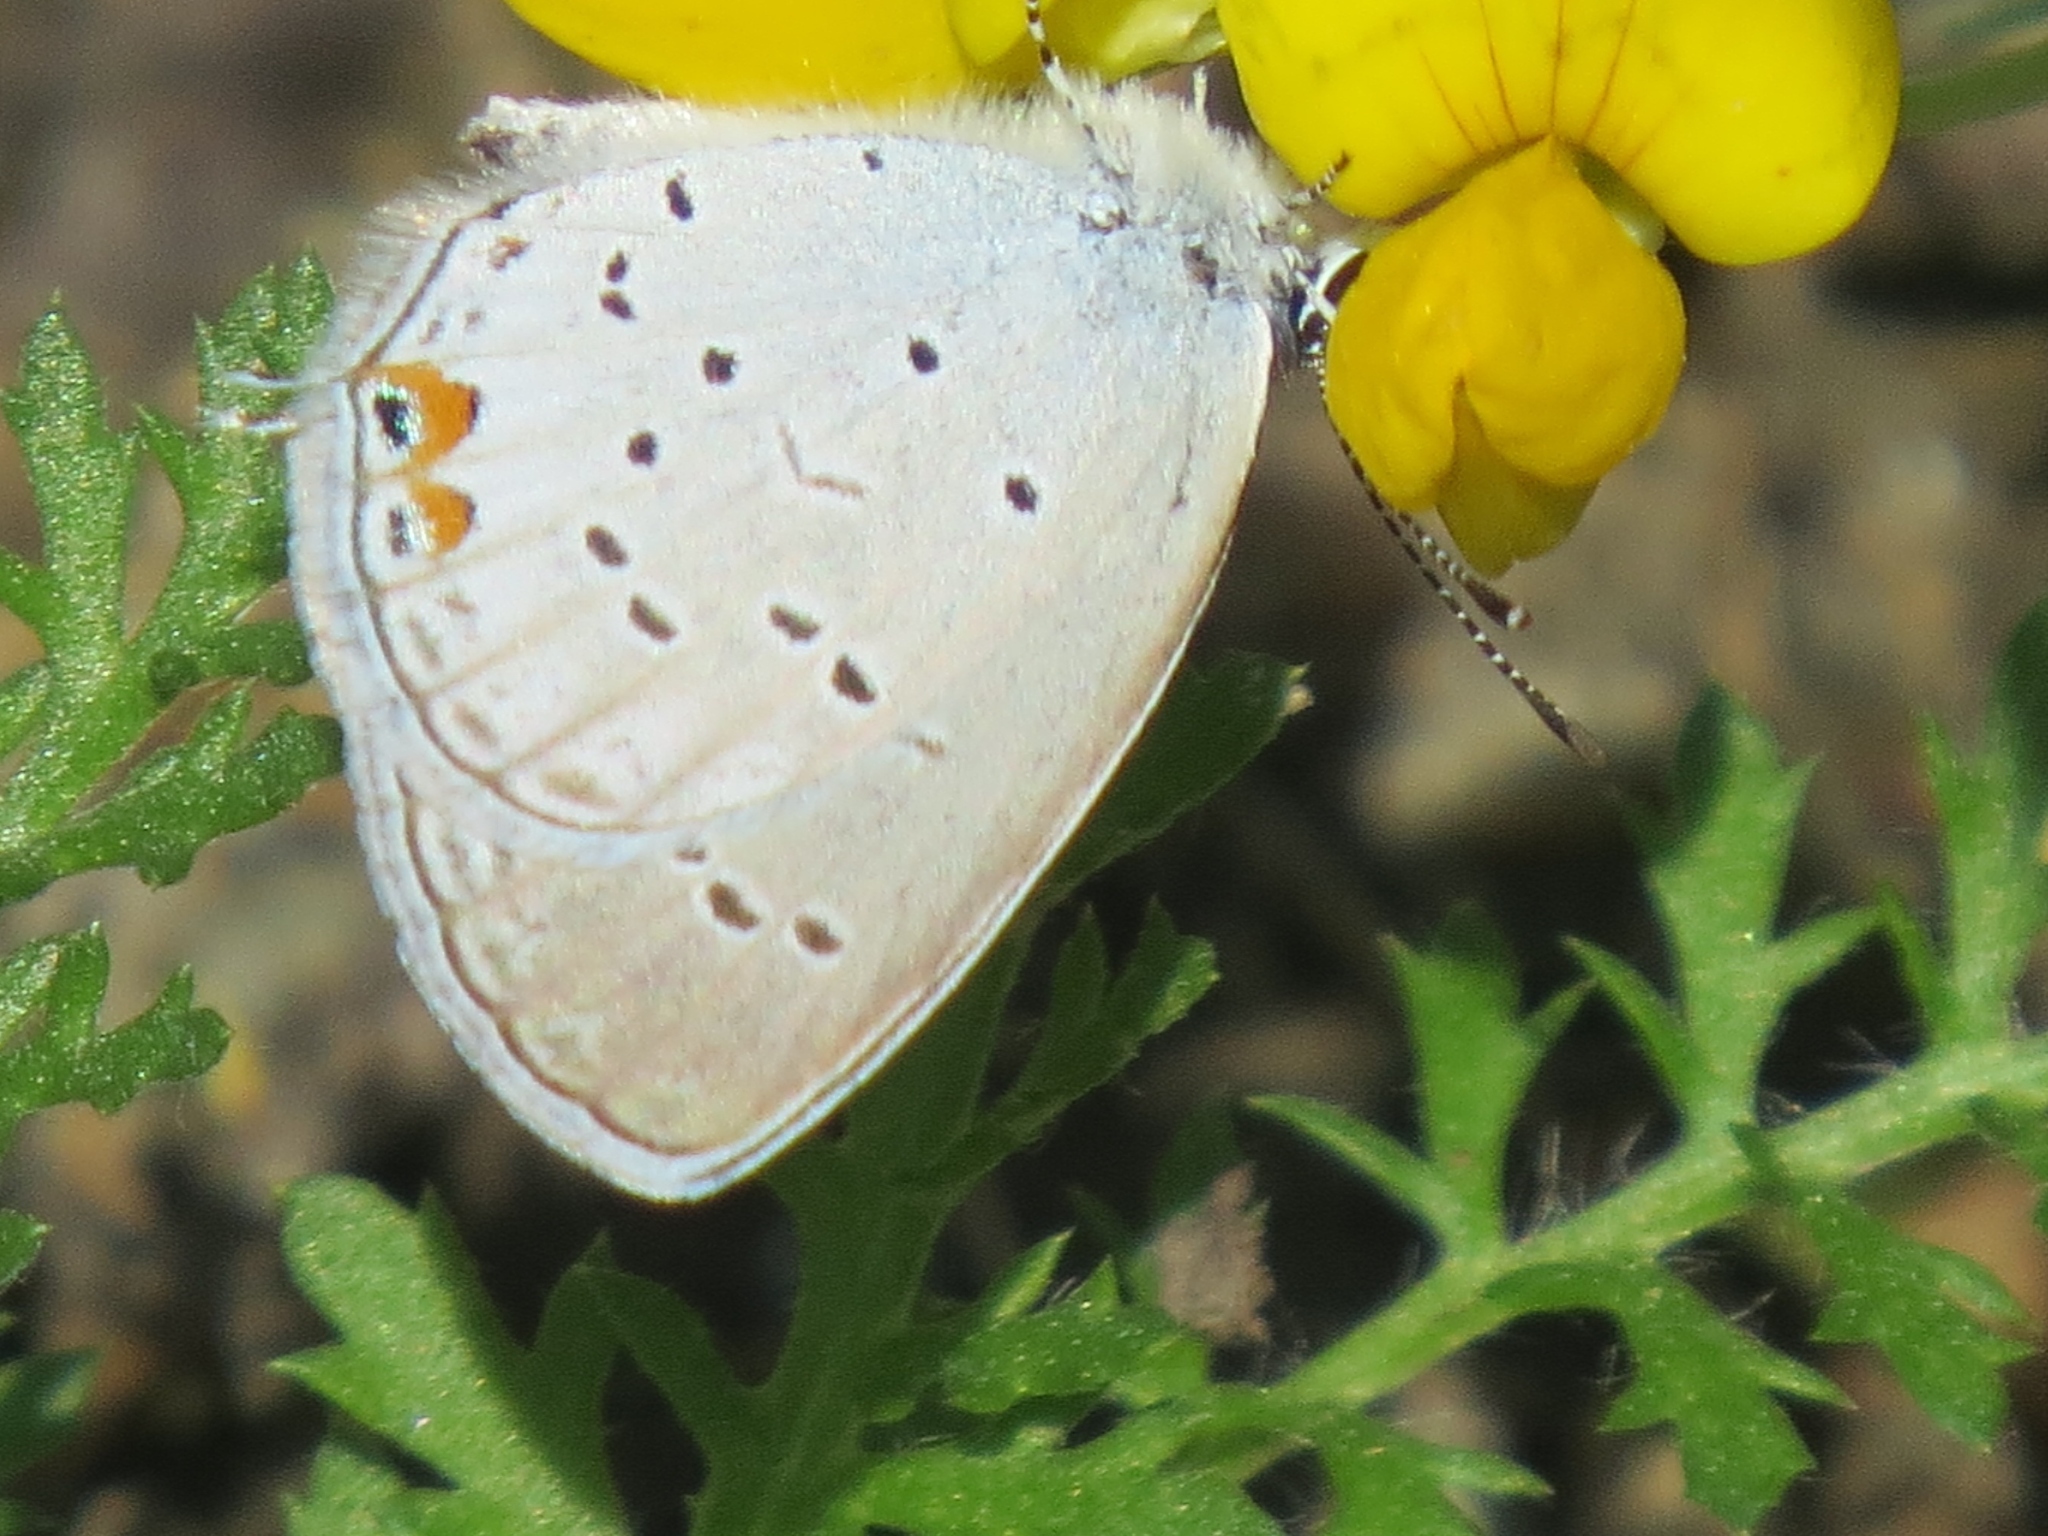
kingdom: Animalia
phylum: Arthropoda
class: Insecta
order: Lepidoptera
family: Lycaenidae
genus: Elkalyce
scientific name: Elkalyce comyntas
